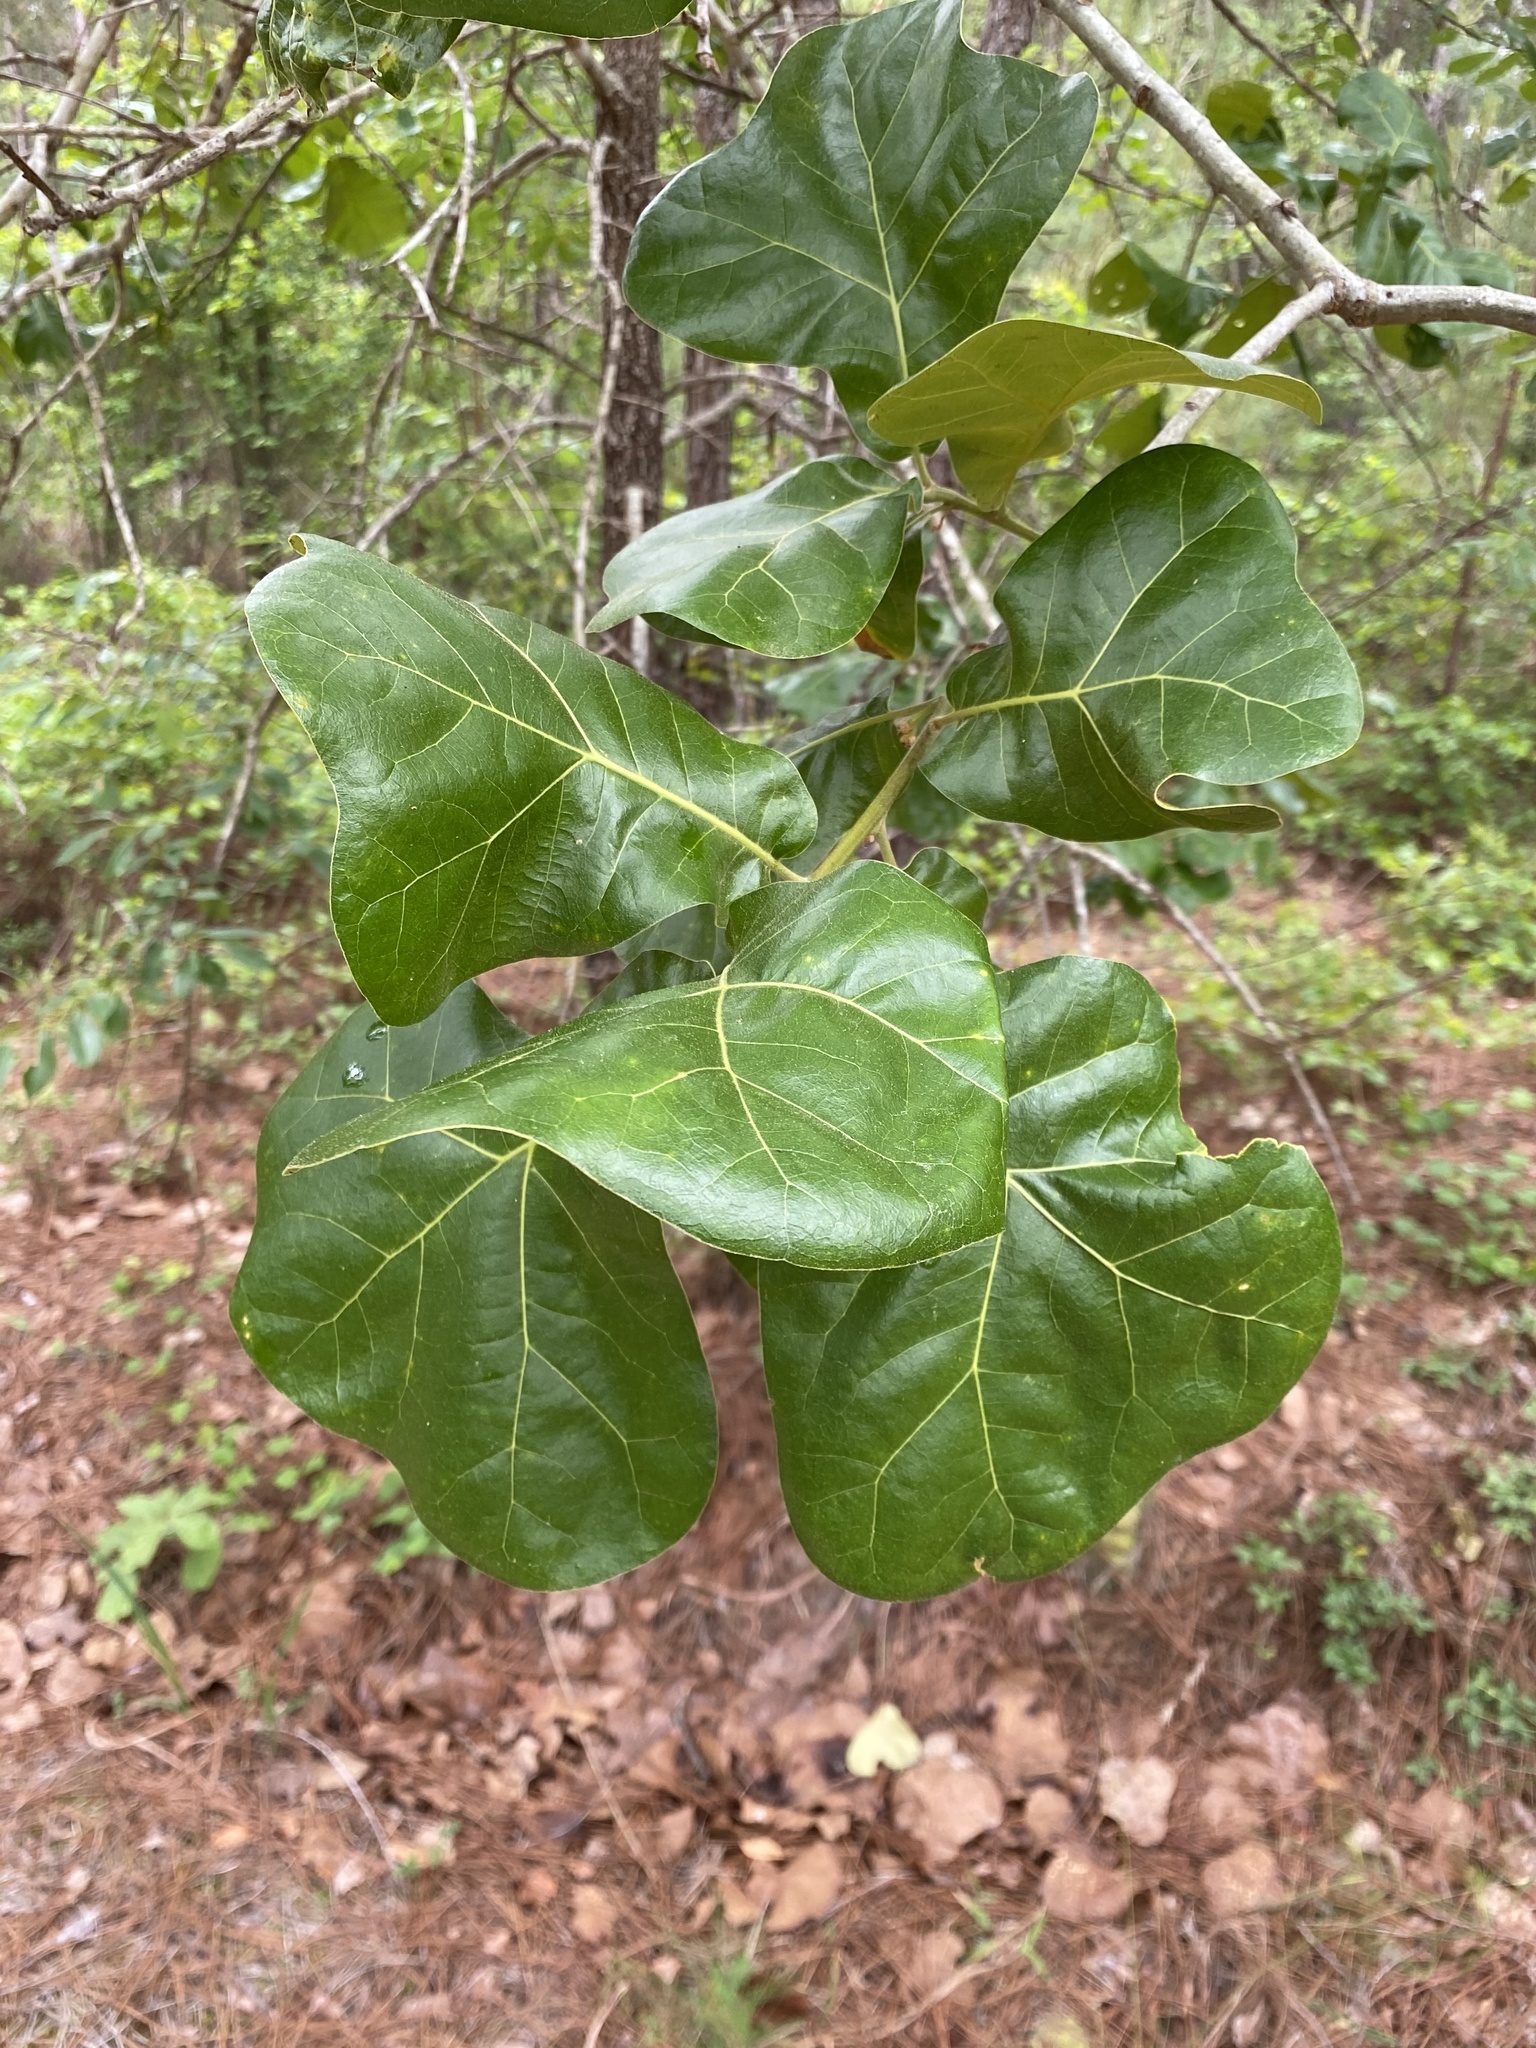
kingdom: Plantae
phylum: Tracheophyta
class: Magnoliopsida
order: Fagales
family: Fagaceae
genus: Quercus
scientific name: Quercus marilandica
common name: Blackjack oak
